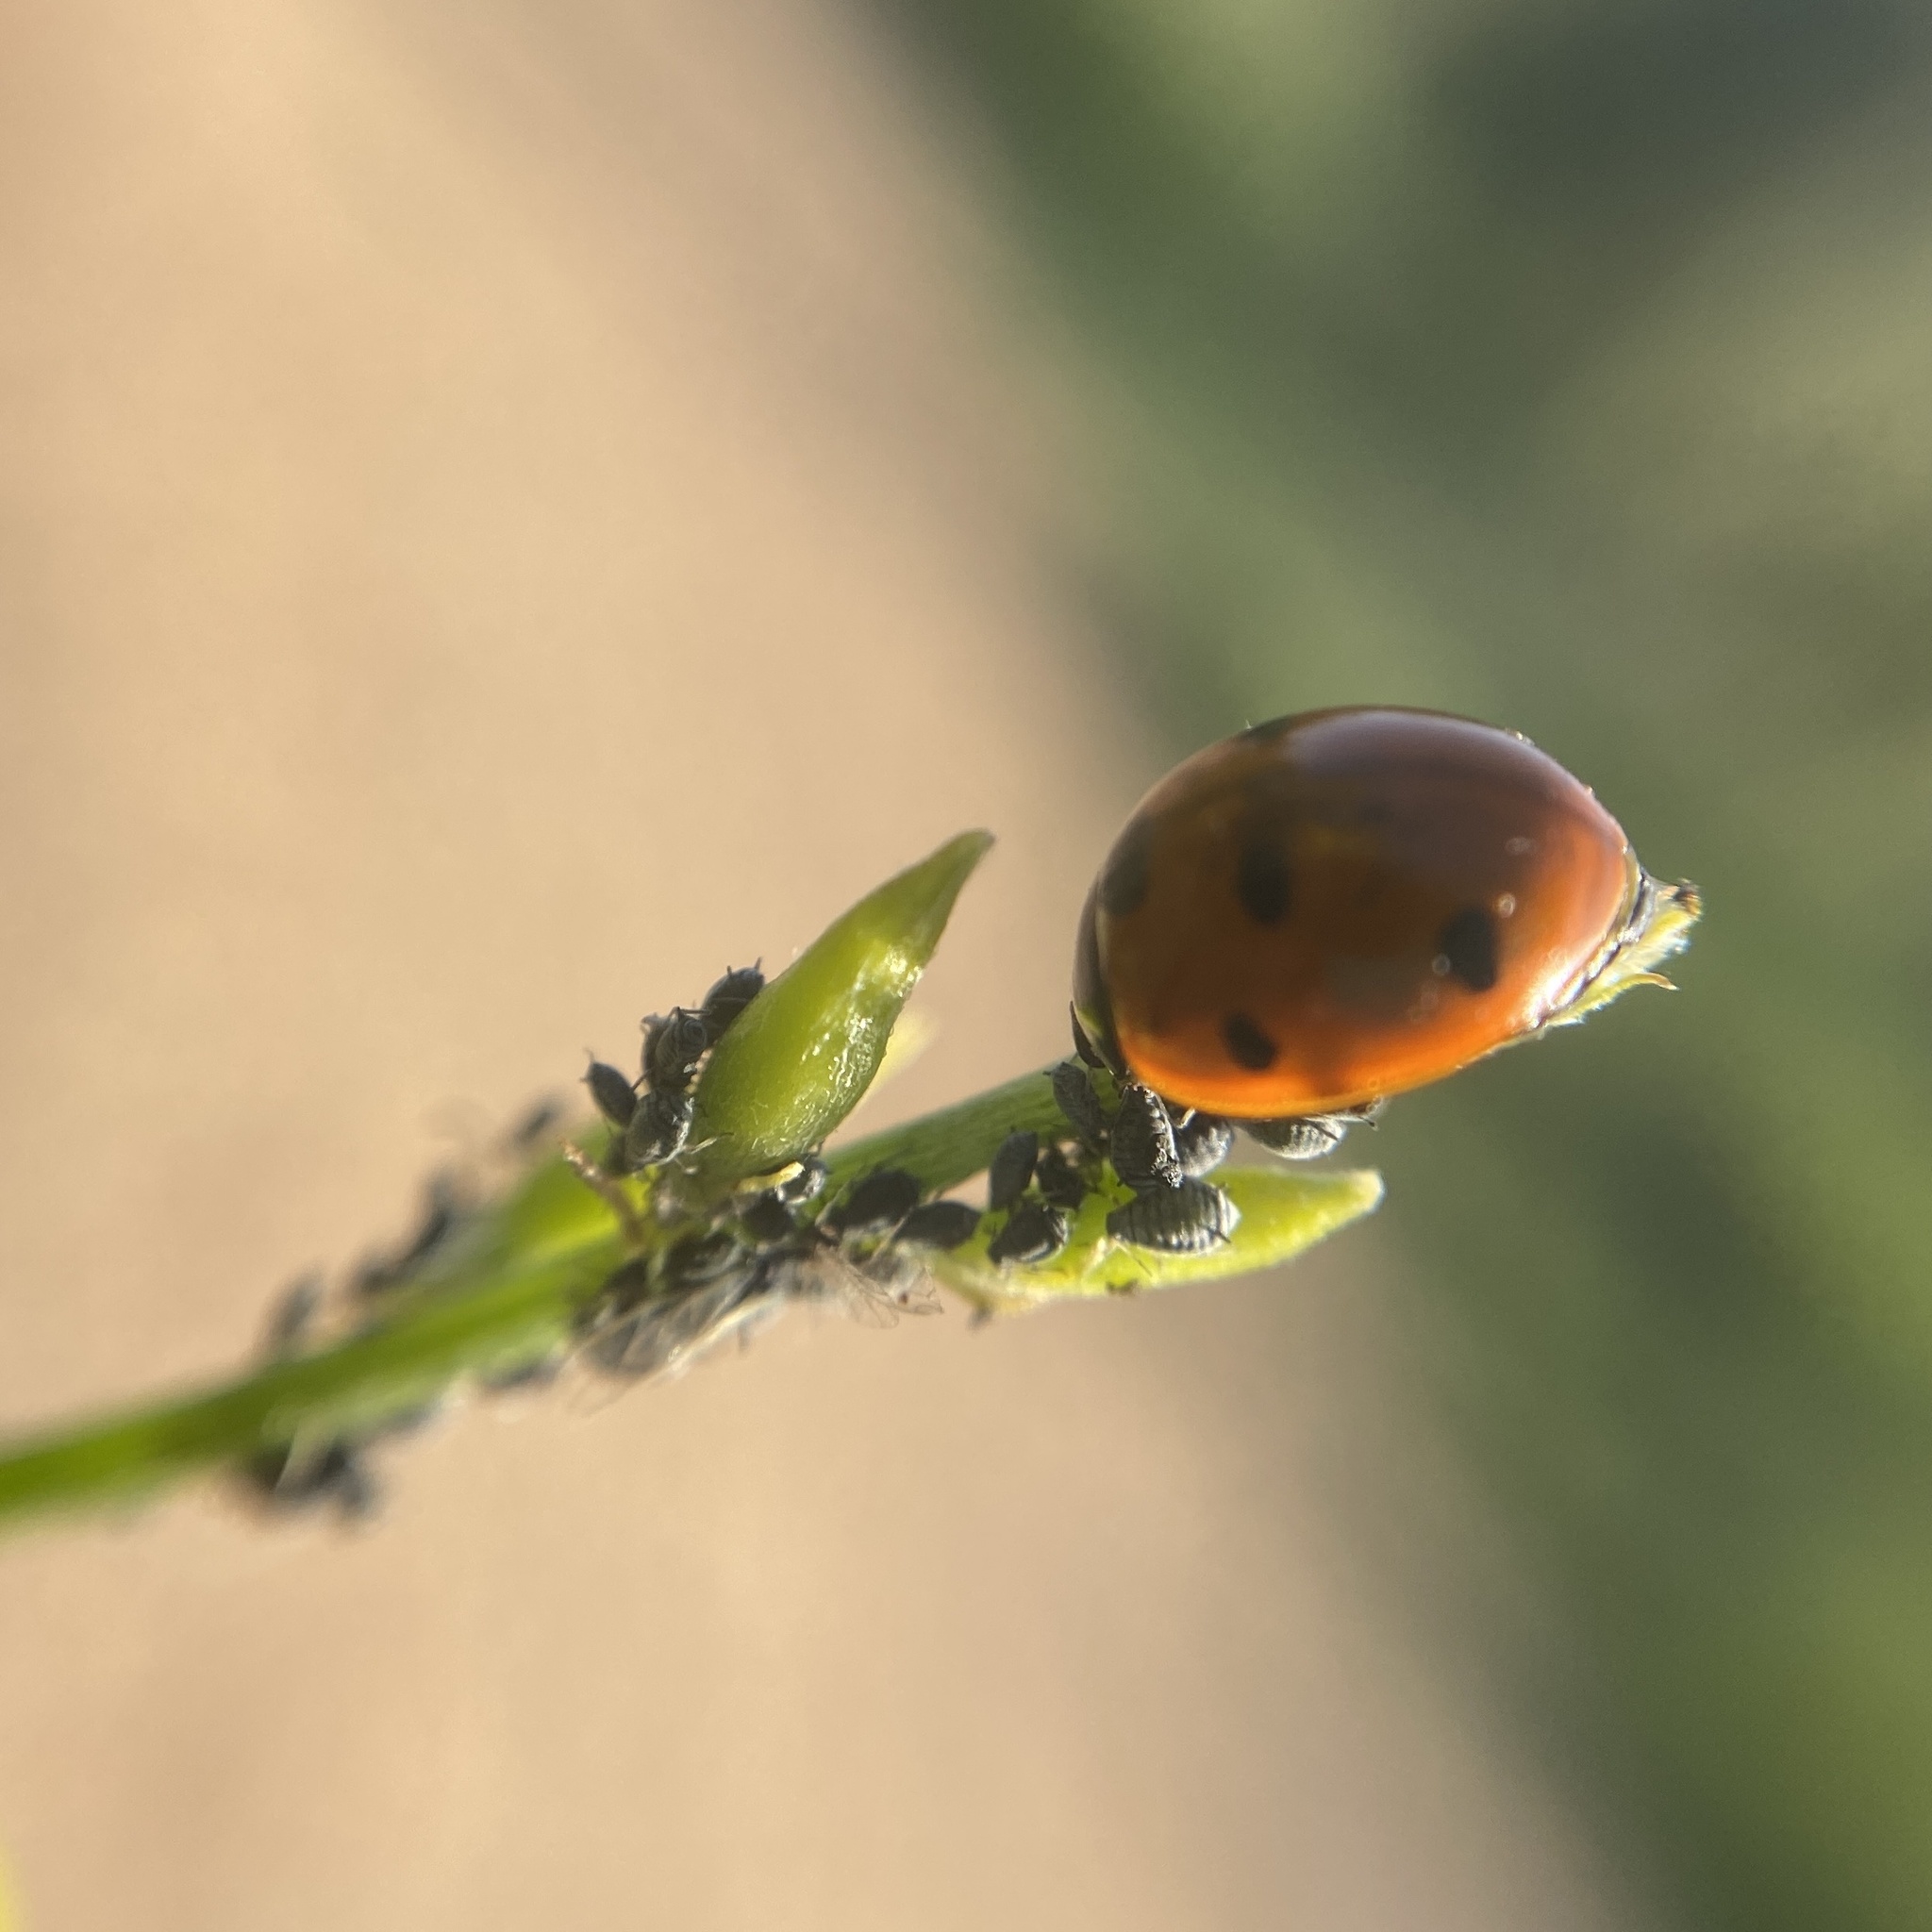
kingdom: Animalia
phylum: Arthropoda
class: Insecta
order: Coleoptera
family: Coccinellidae
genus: Coccinella
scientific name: Coccinella septempunctata
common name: Sevenspotted lady beetle
